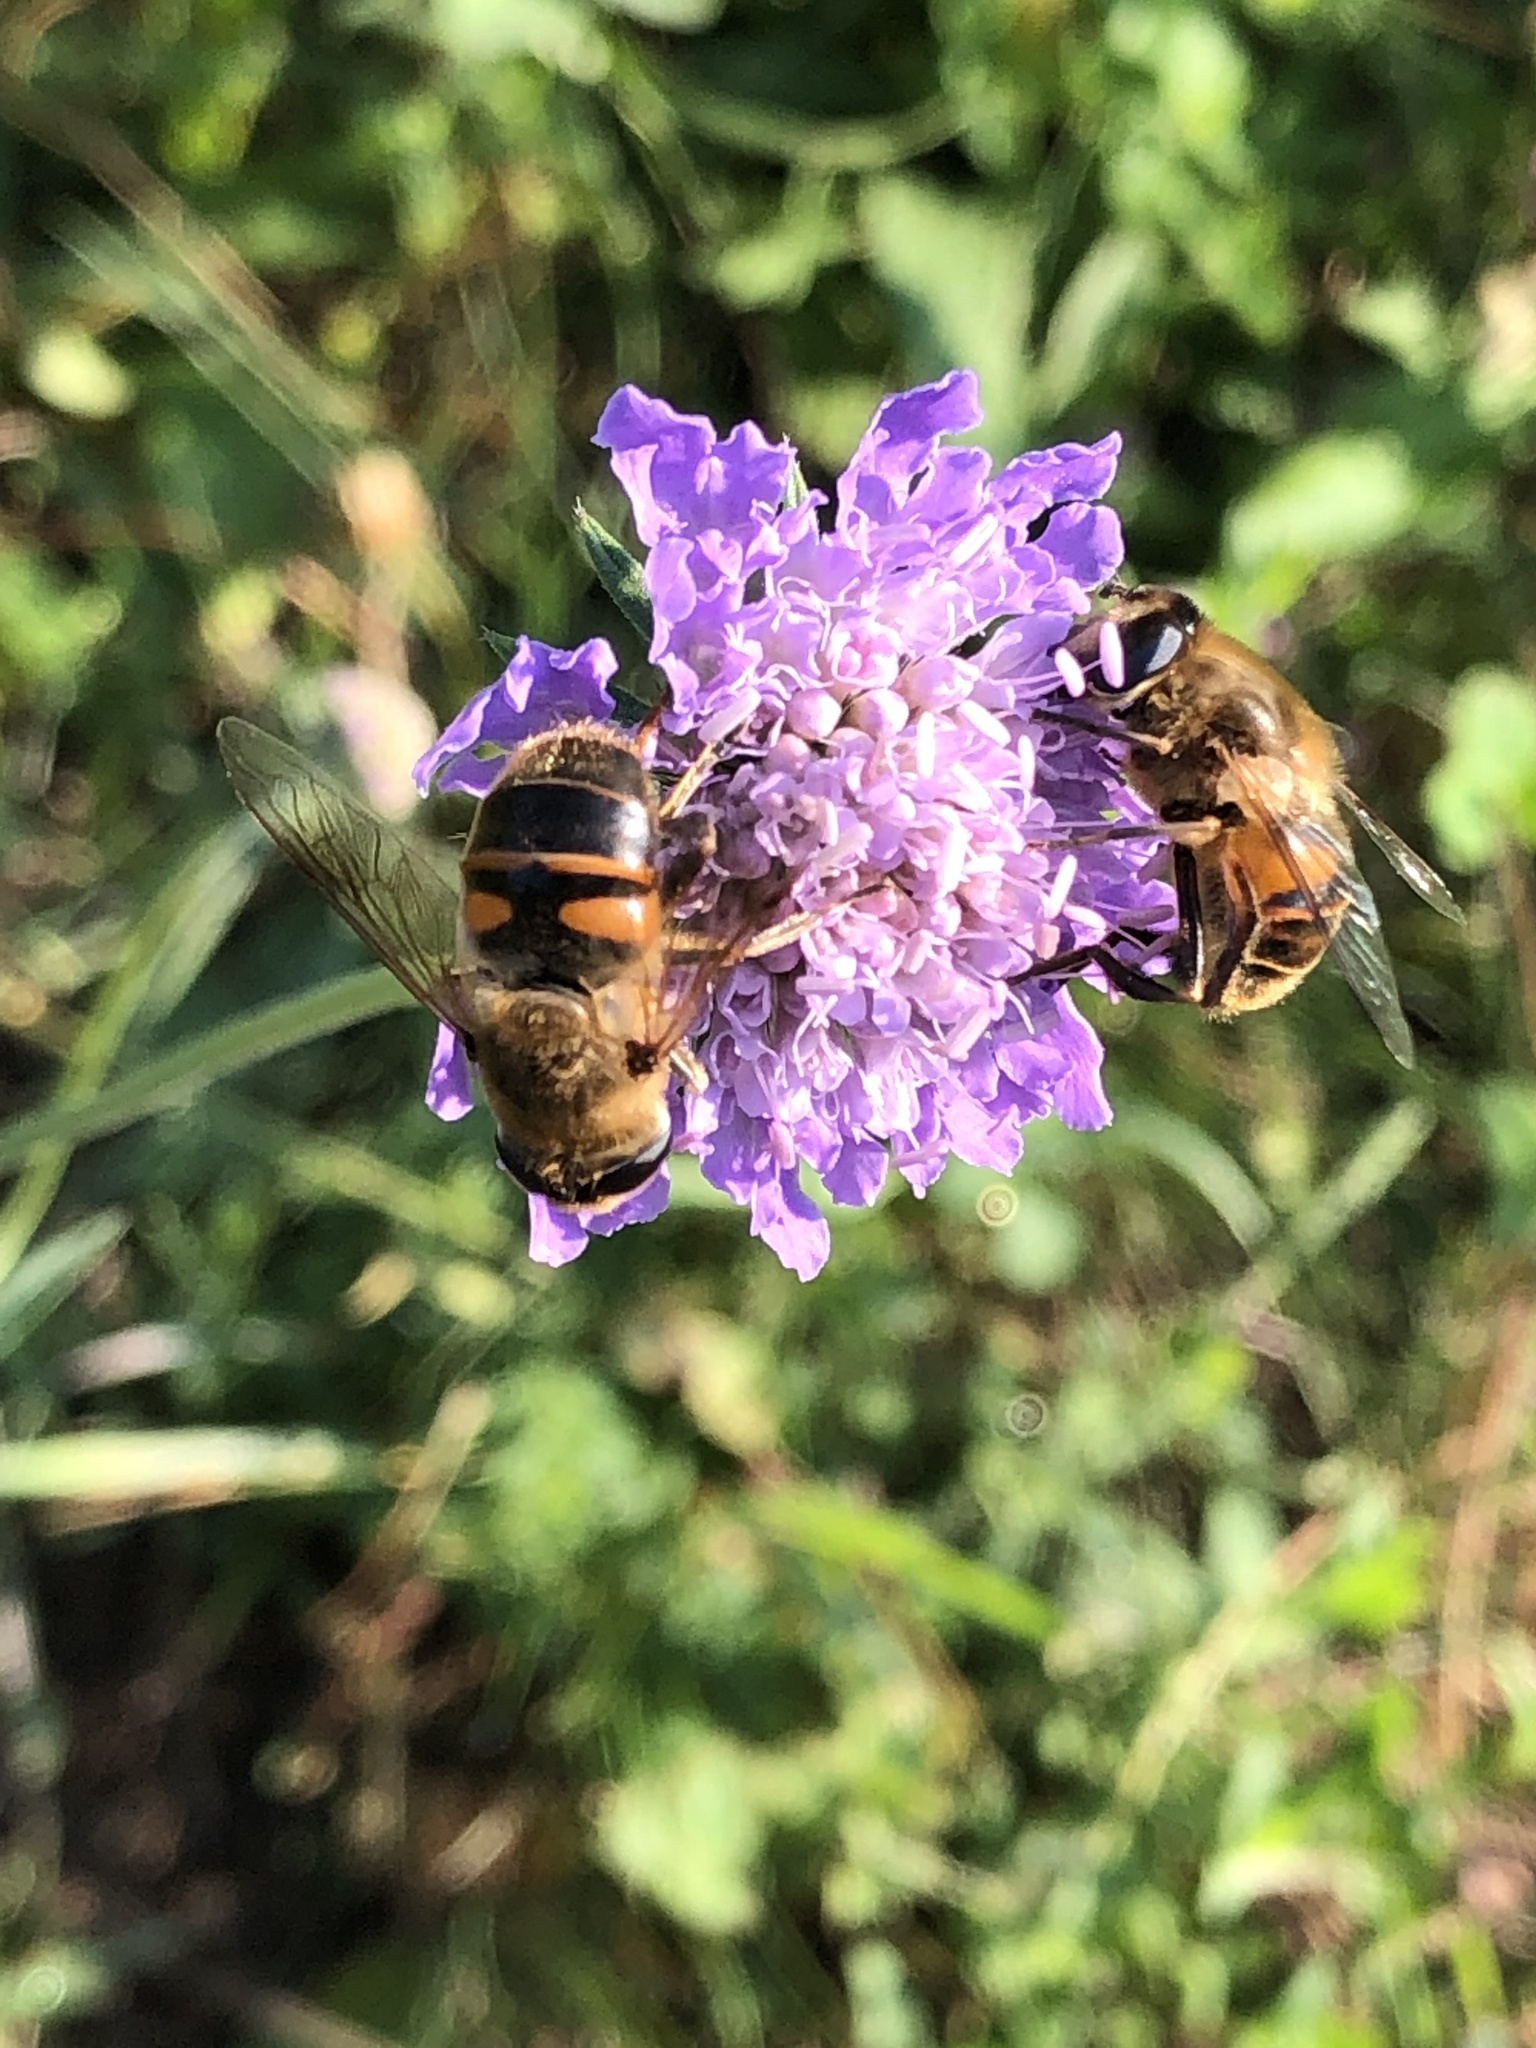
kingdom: Animalia
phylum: Arthropoda
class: Insecta
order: Diptera
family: Syrphidae
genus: Eristalis
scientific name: Eristalis tenax
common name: Drone fly
